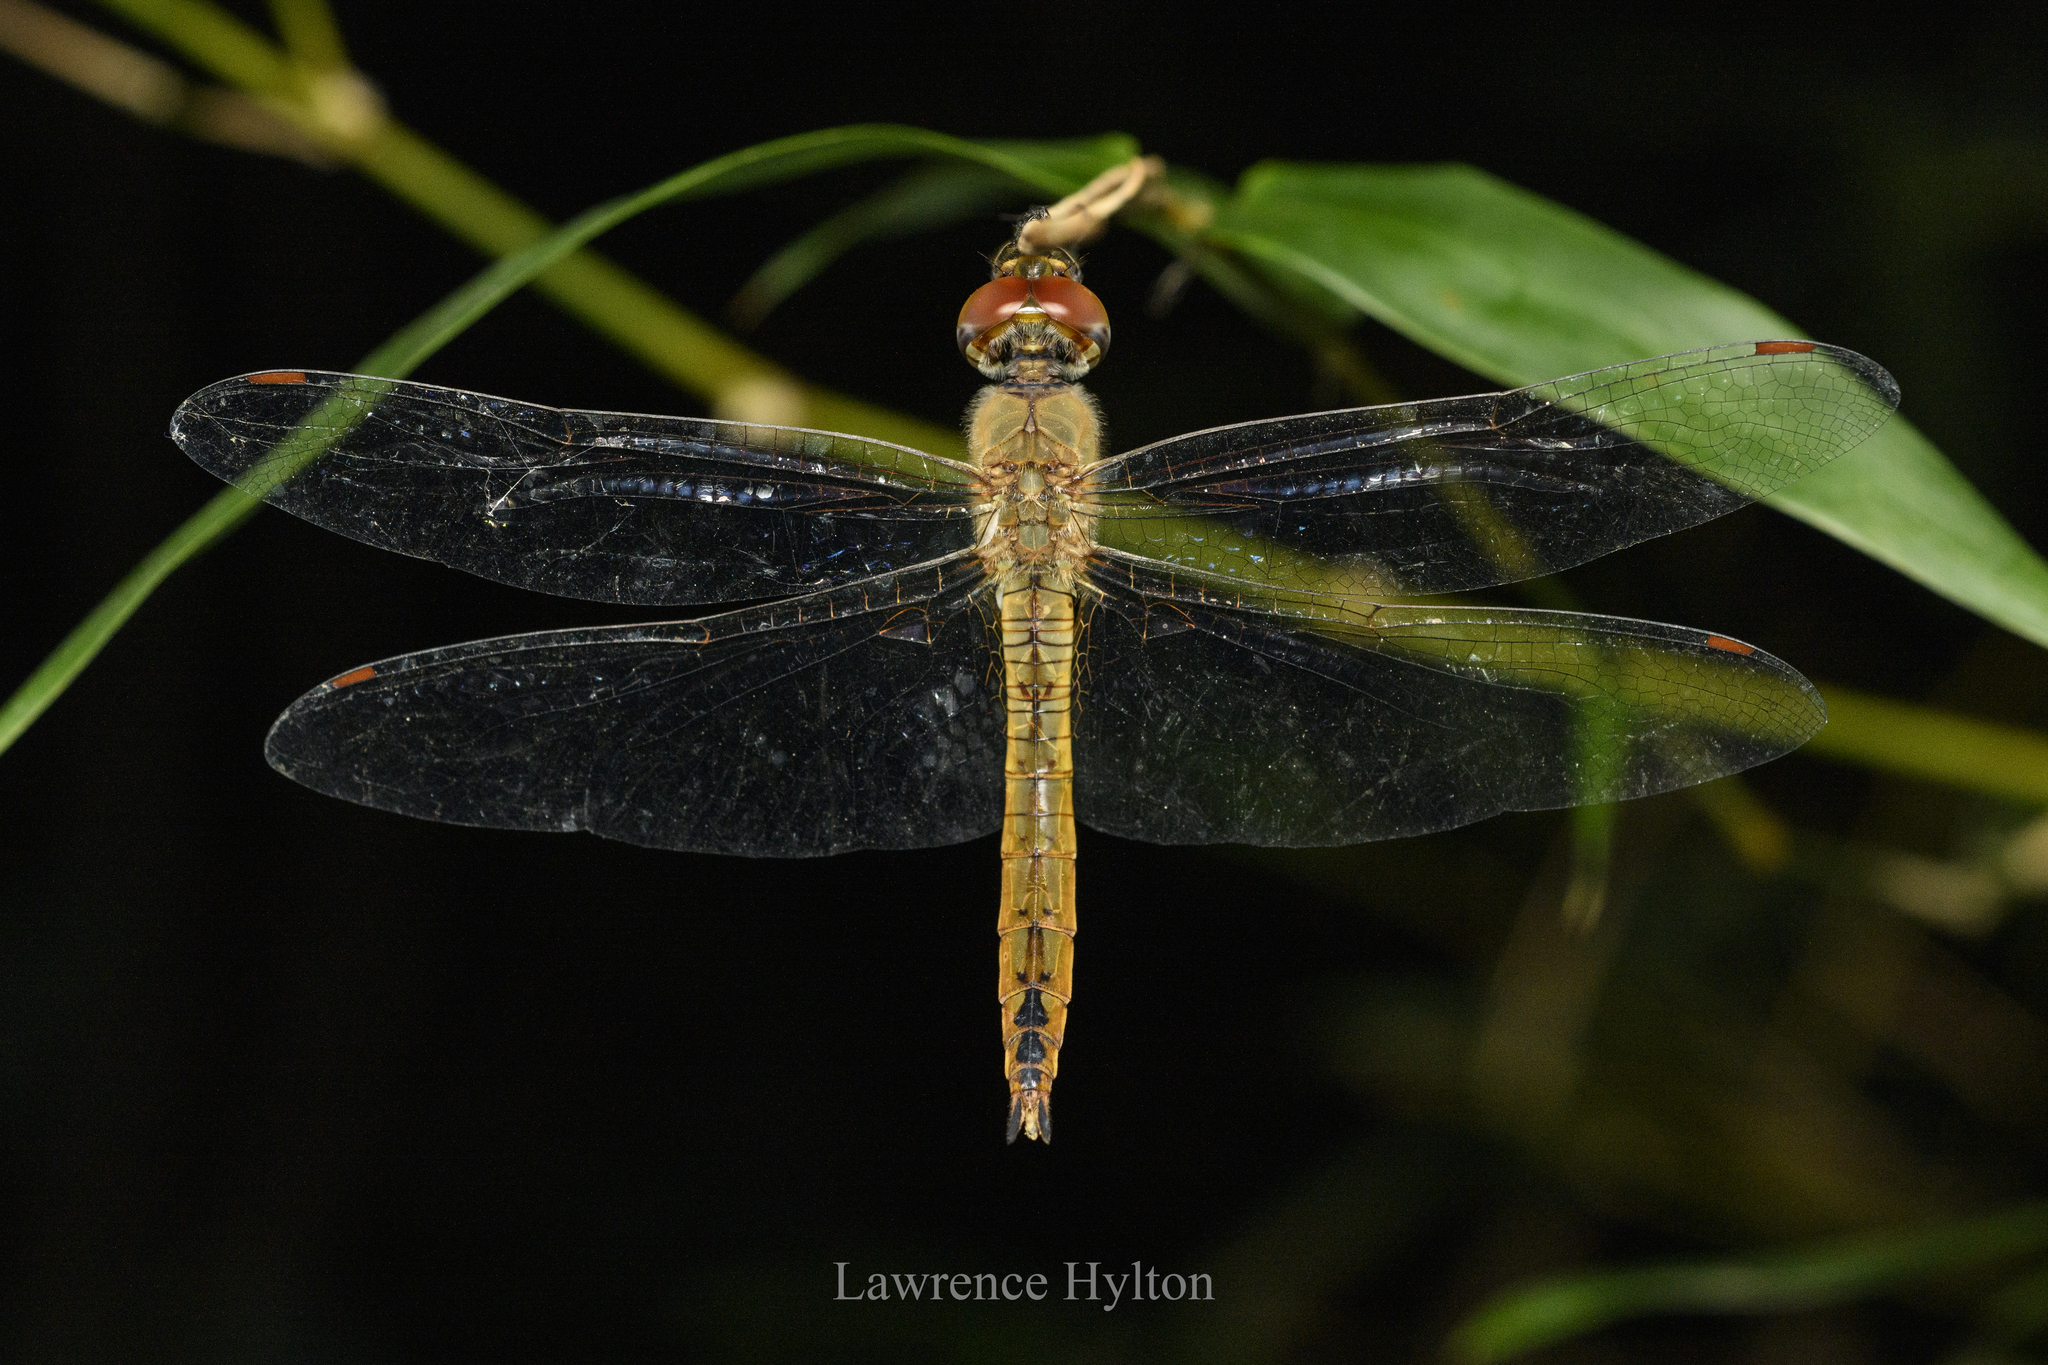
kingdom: Animalia
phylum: Arthropoda
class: Insecta
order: Odonata
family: Libellulidae
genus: Pantala
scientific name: Pantala flavescens
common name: Wandering glider
